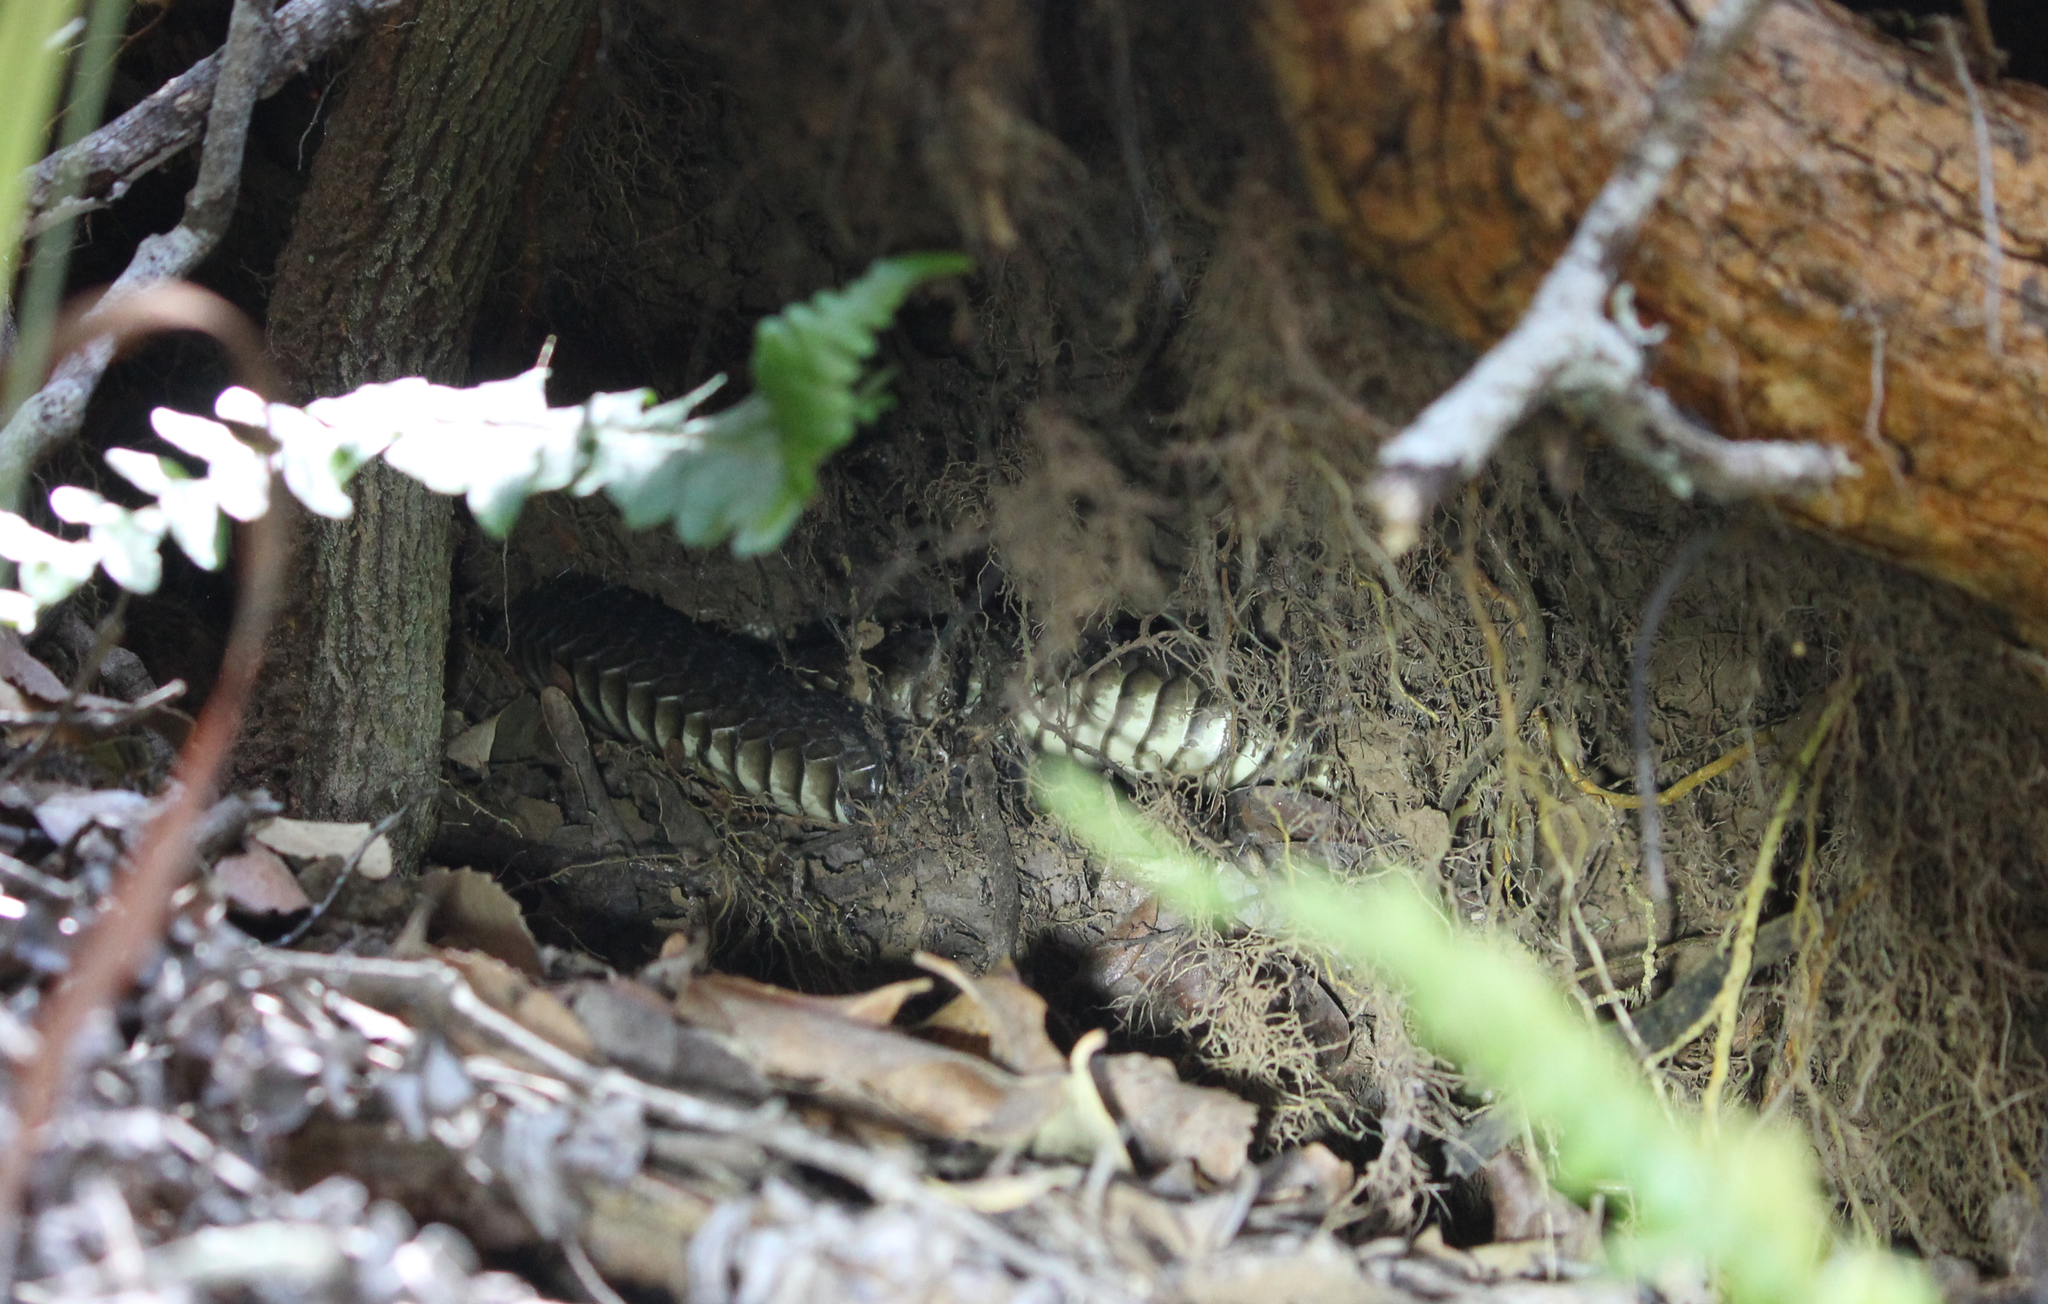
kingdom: Animalia
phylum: Chordata
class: Squamata
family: Colubridae
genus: Dispholidus
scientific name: Dispholidus typus
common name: Boomslang
